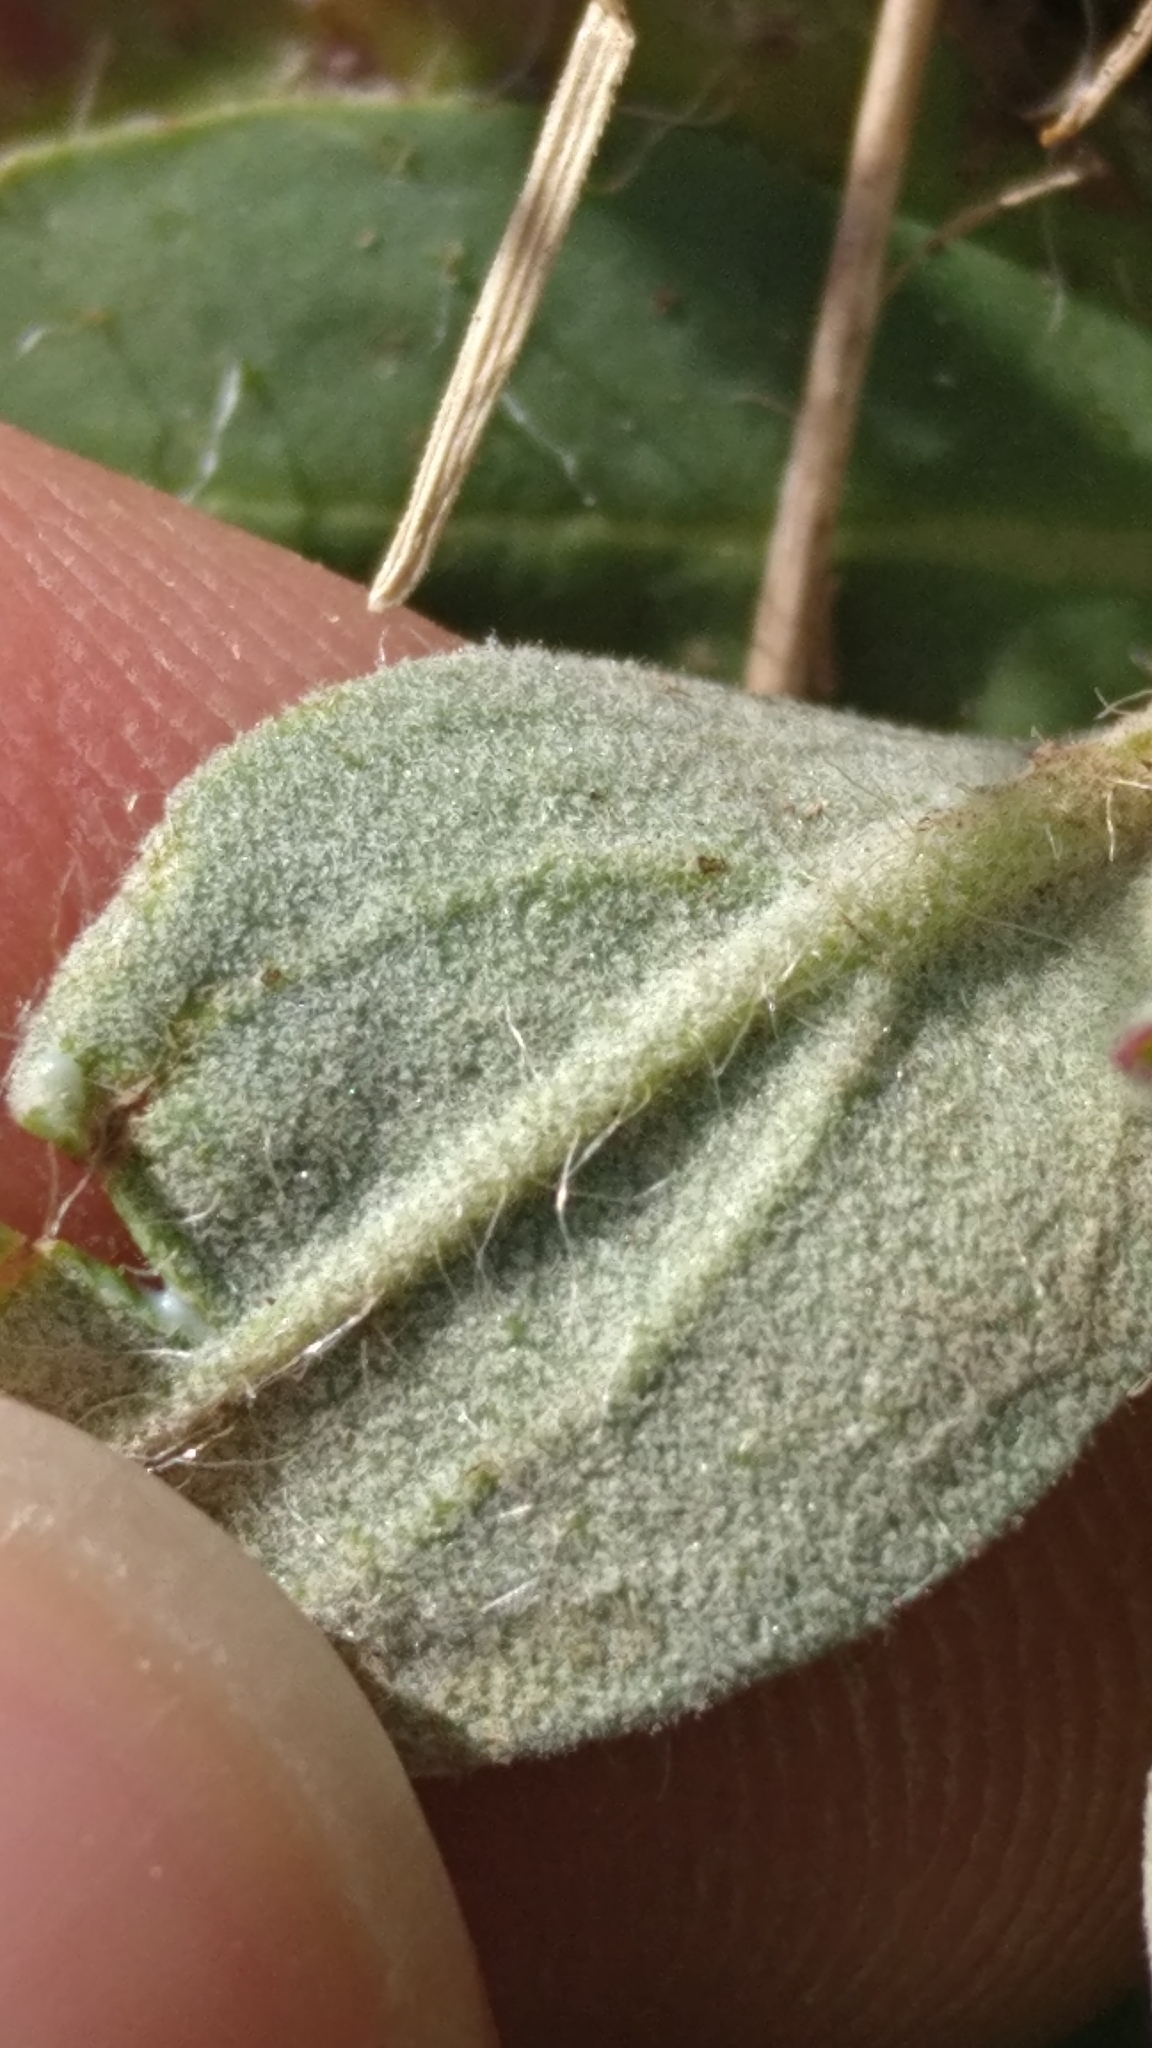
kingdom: Plantae
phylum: Tracheophyta
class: Magnoliopsida
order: Asterales
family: Asteraceae
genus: Pilosella
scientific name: Pilosella officinarum
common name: Mouse-ear hawkweed
